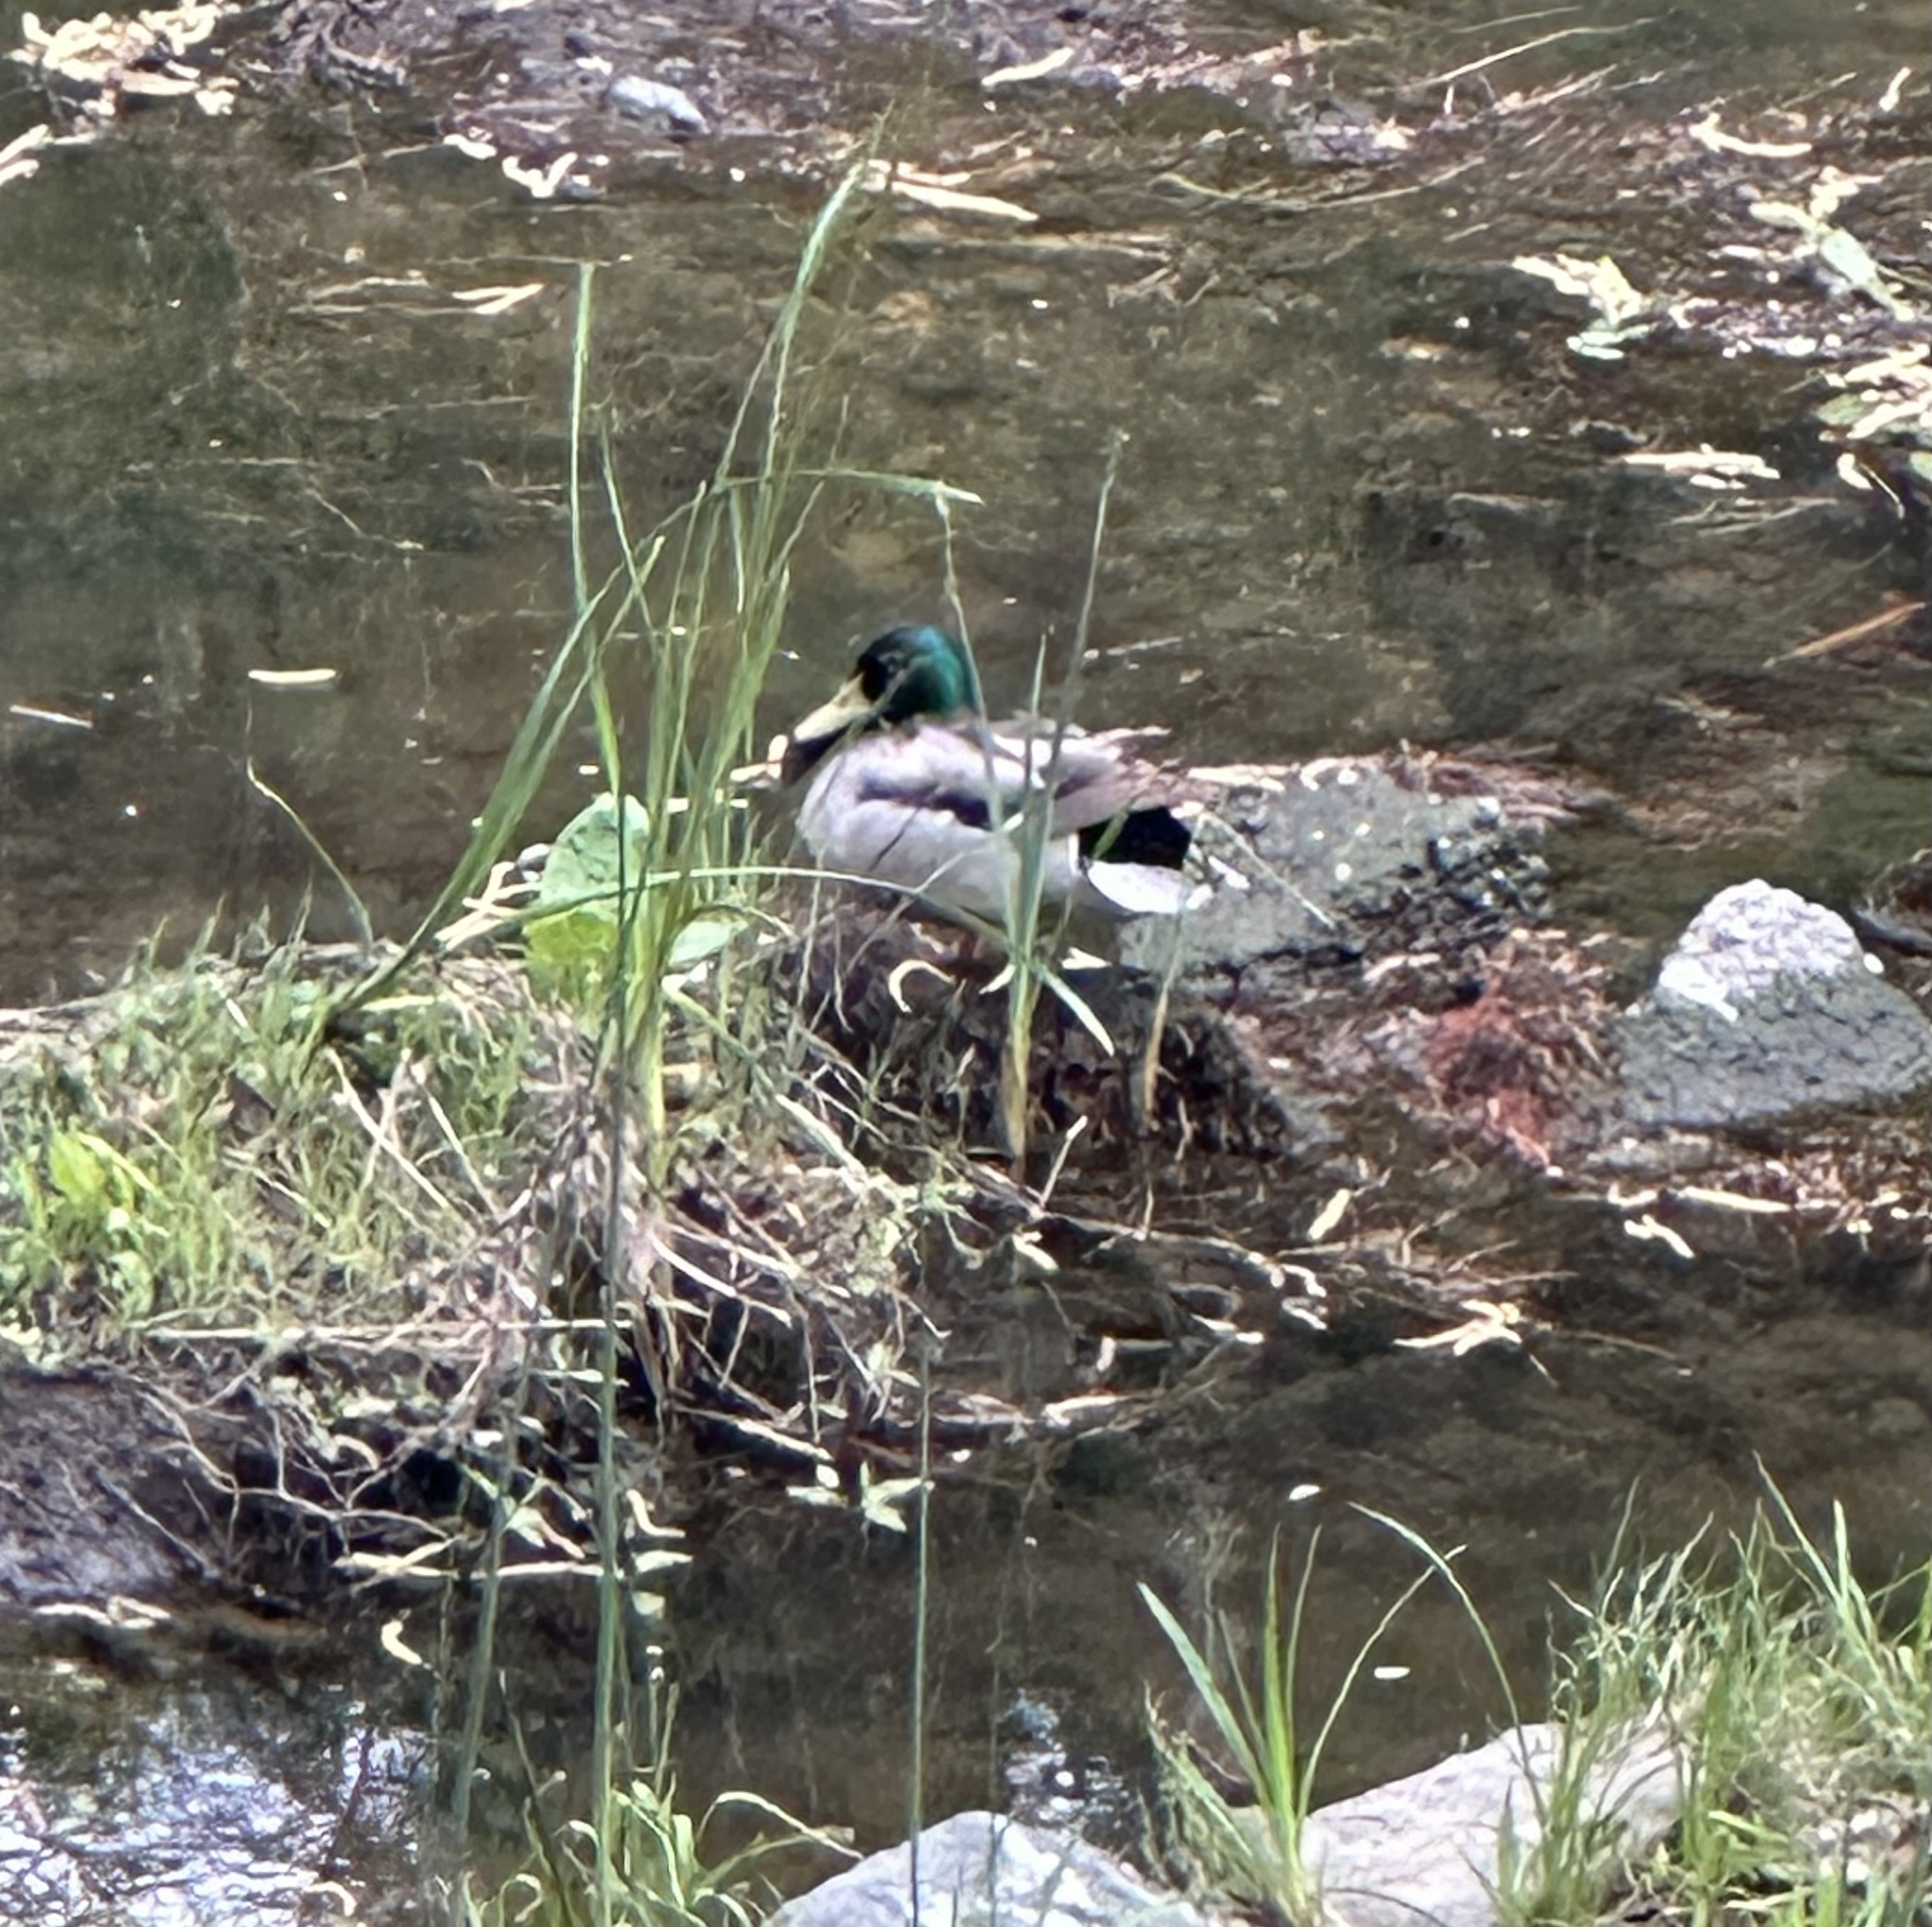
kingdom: Animalia
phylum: Chordata
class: Aves
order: Anseriformes
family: Anatidae
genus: Anas
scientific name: Anas platyrhynchos
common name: Mallard
